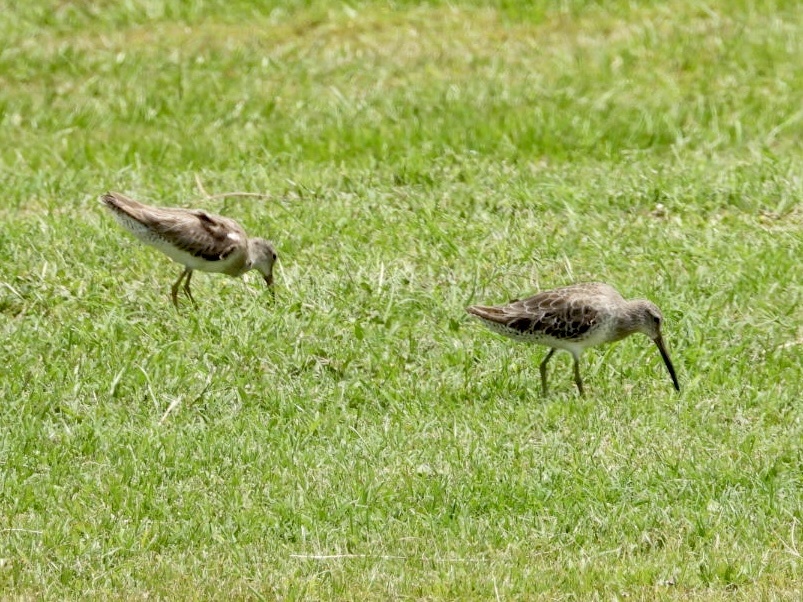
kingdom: Animalia
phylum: Chordata
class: Aves
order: Charadriiformes
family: Scolopacidae
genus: Limosa
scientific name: Limosa haemastica
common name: Hudsonian godwit
